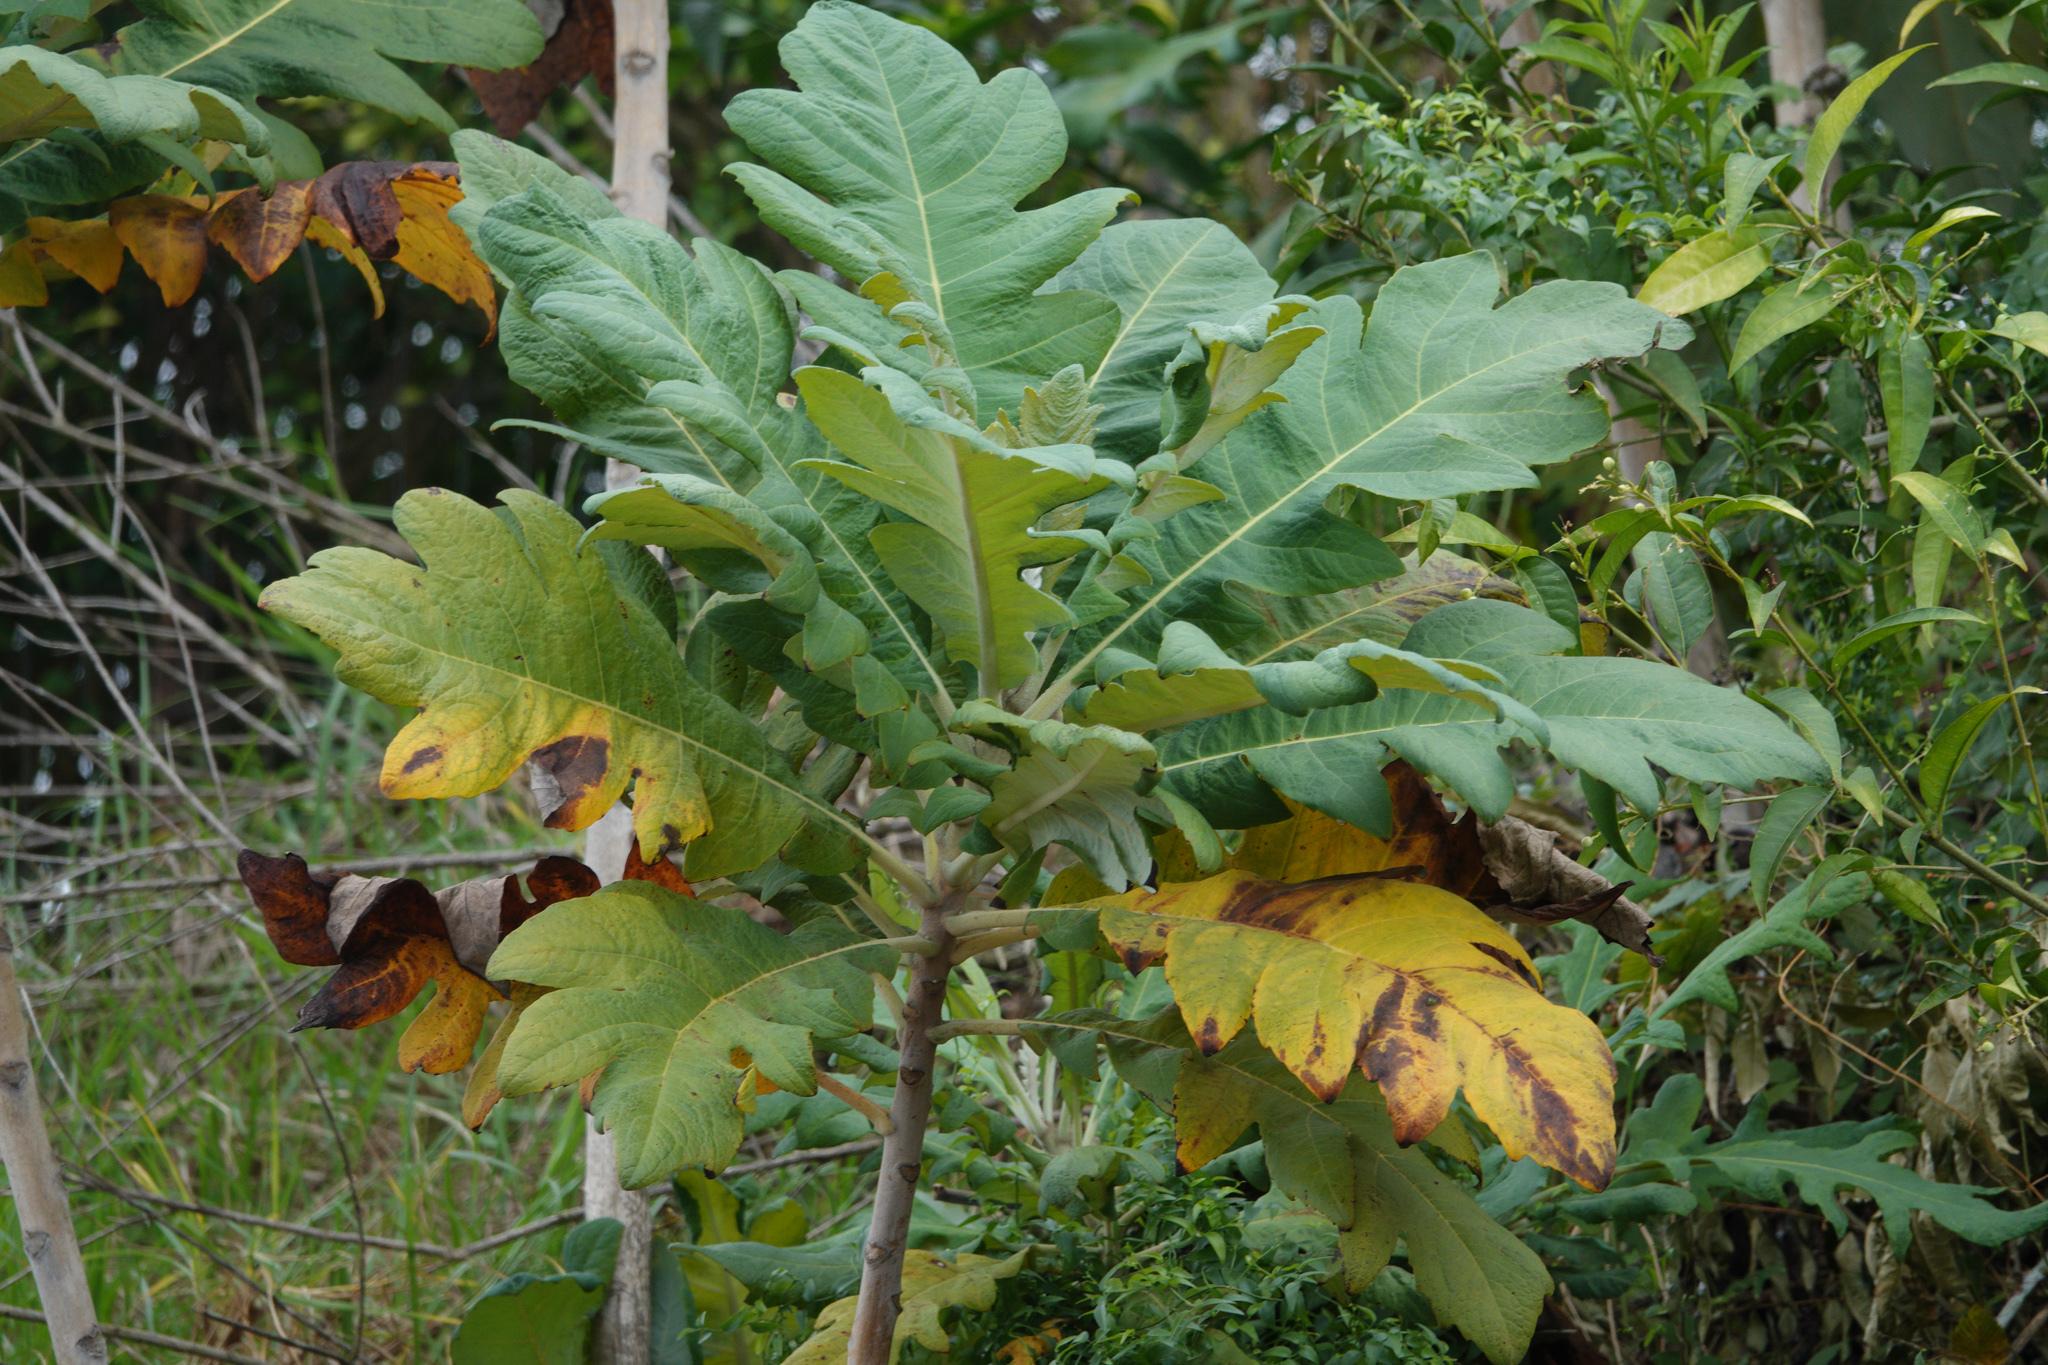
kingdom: Plantae
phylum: Tracheophyta
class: Magnoliopsida
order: Ranunculales
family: Papaveraceae
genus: Bocconia
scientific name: Bocconia frutescens
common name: Tree poppy
